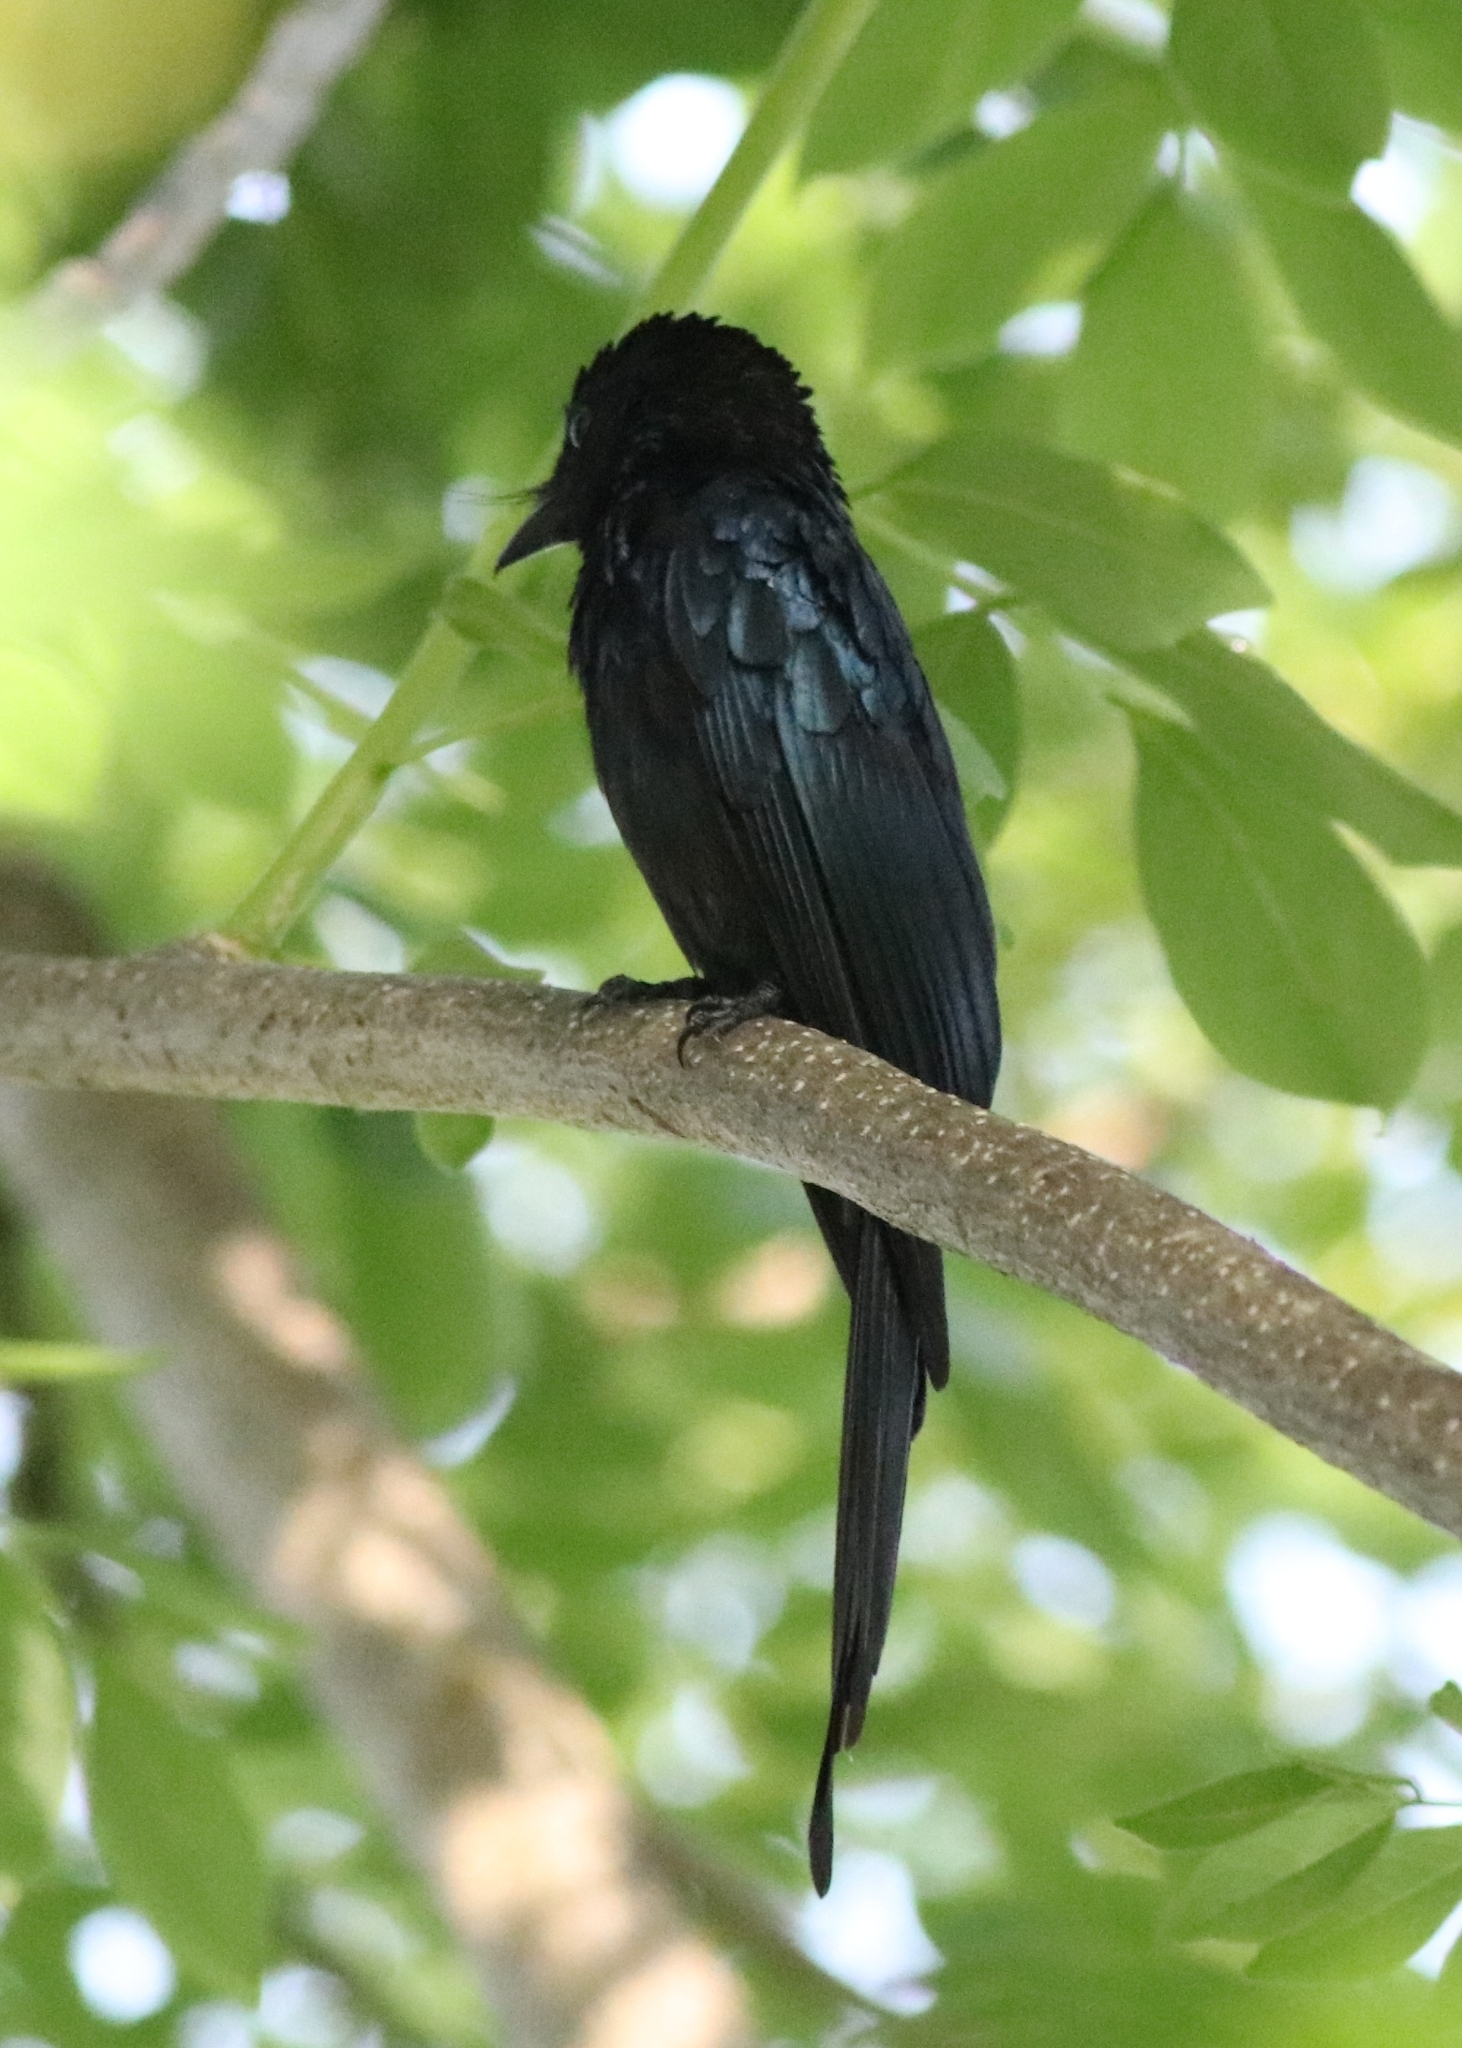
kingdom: Animalia
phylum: Chordata
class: Aves
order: Passeriformes
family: Dicruridae
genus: Dicrurus
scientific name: Dicrurus aeneus
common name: Bronzed drongo
